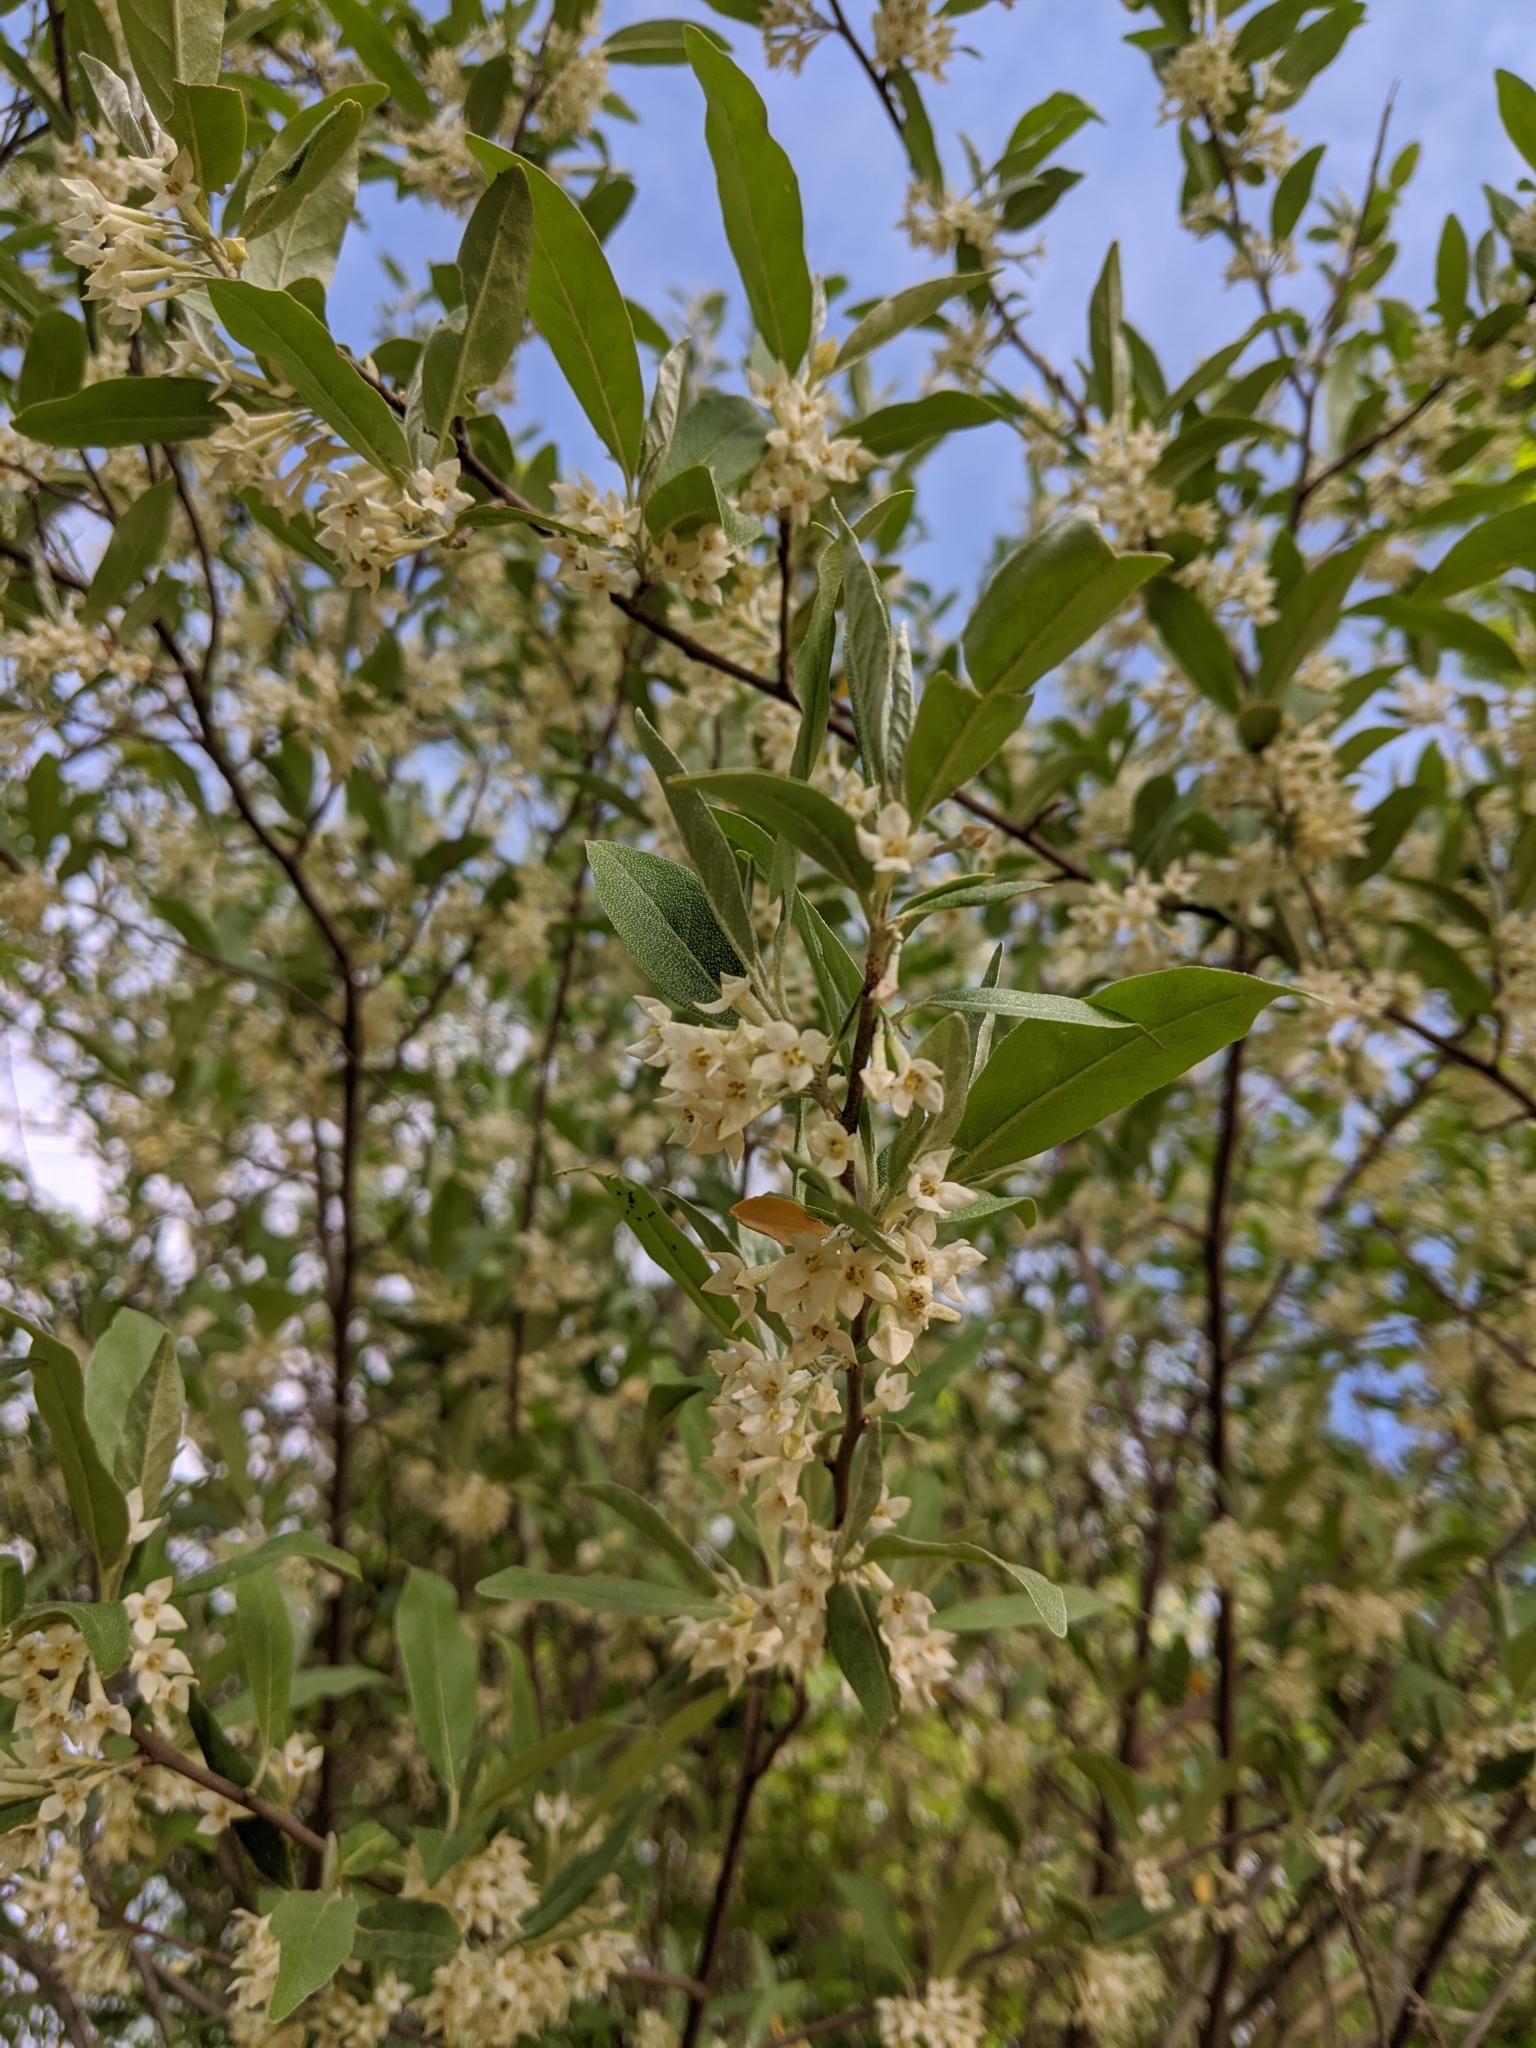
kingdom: Plantae
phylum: Tracheophyta
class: Magnoliopsida
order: Rosales
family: Elaeagnaceae
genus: Elaeagnus
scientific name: Elaeagnus umbellata
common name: Autumn olive
